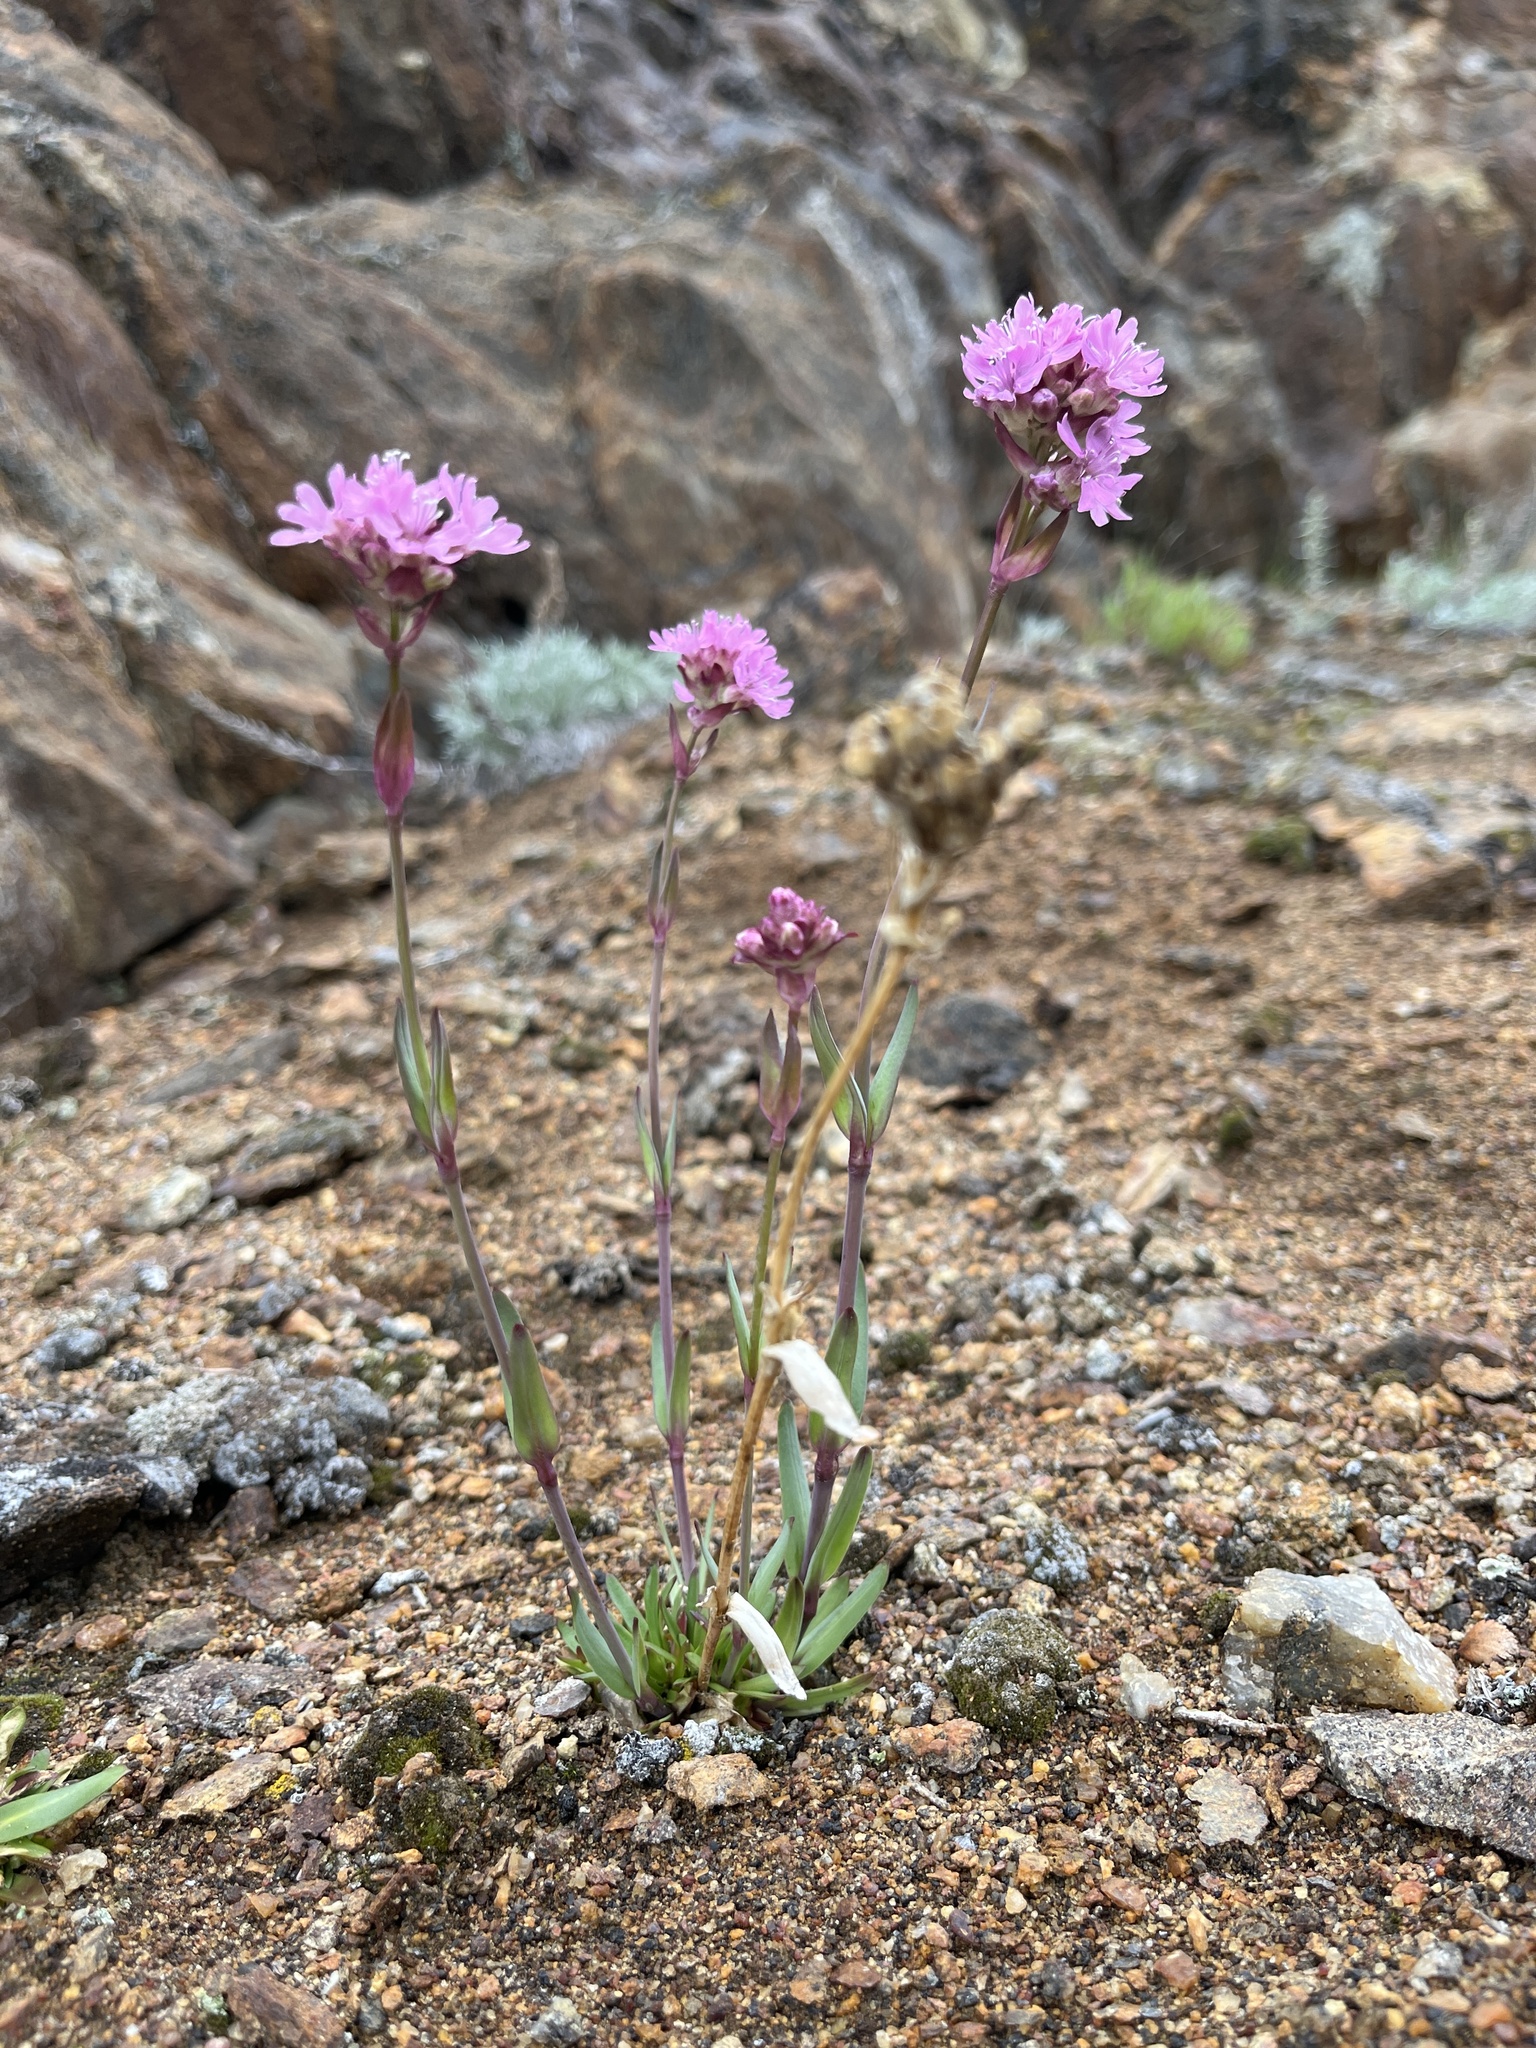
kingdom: Plantae
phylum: Tracheophyta
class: Magnoliopsida
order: Caryophyllales
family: Caryophyllaceae
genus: Viscaria
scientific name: Viscaria alpina
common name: Alpine campion
